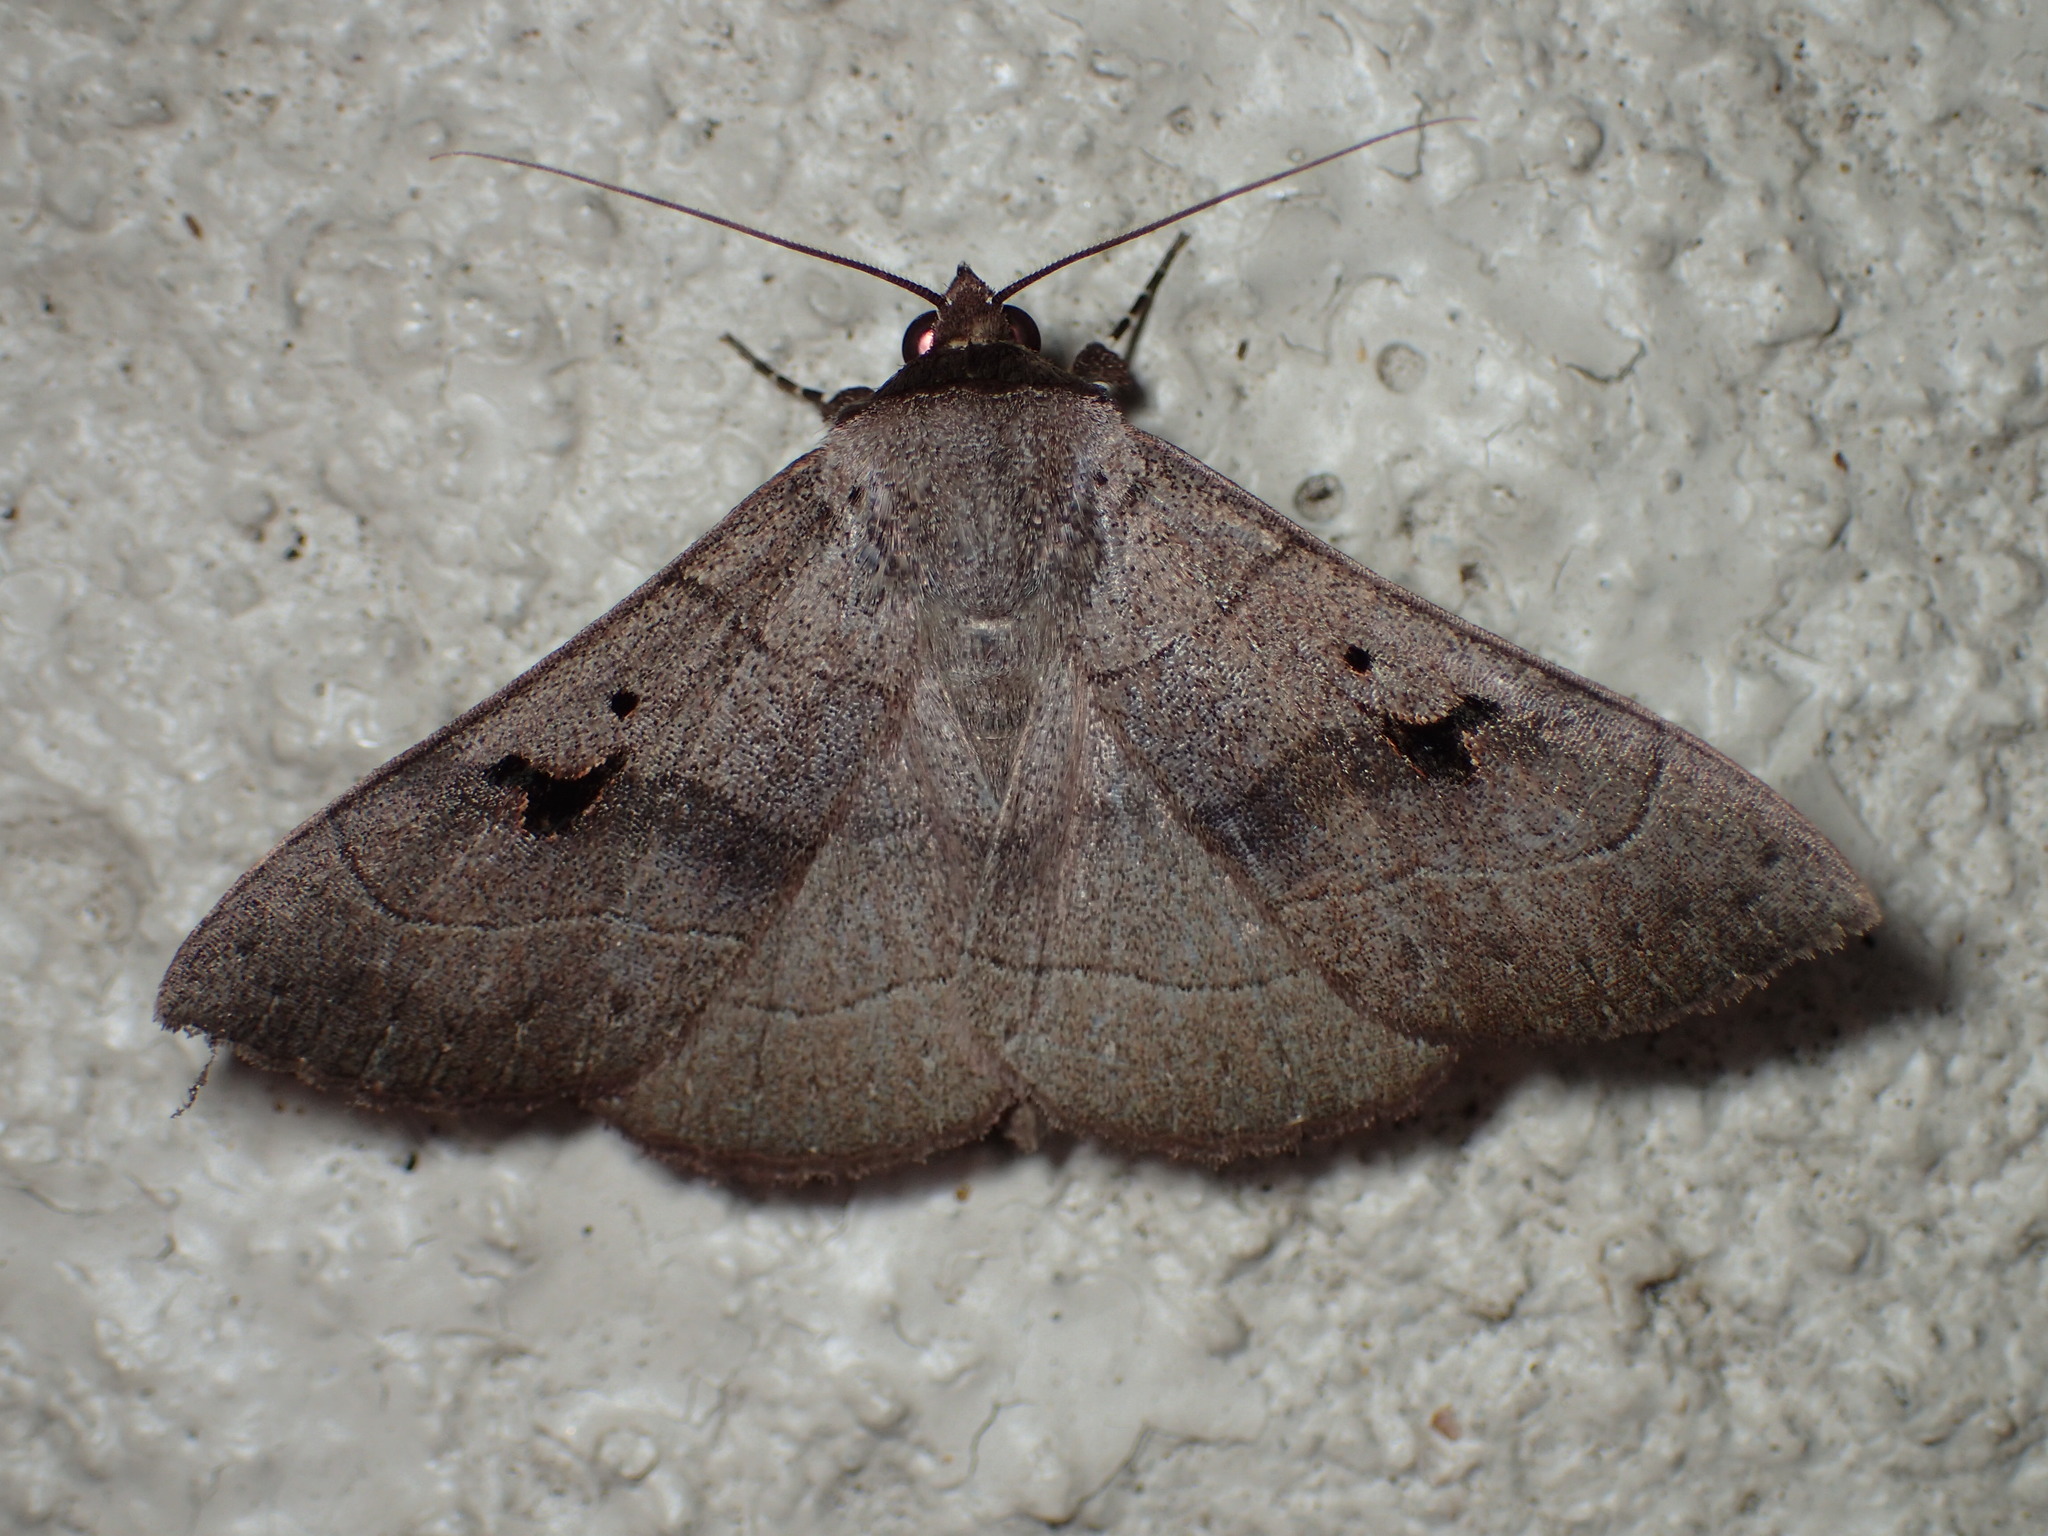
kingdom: Animalia
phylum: Arthropoda
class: Insecta
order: Lepidoptera
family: Erebidae
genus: Panopoda
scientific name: Panopoda carneicosta
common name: Brown panopoda moth
